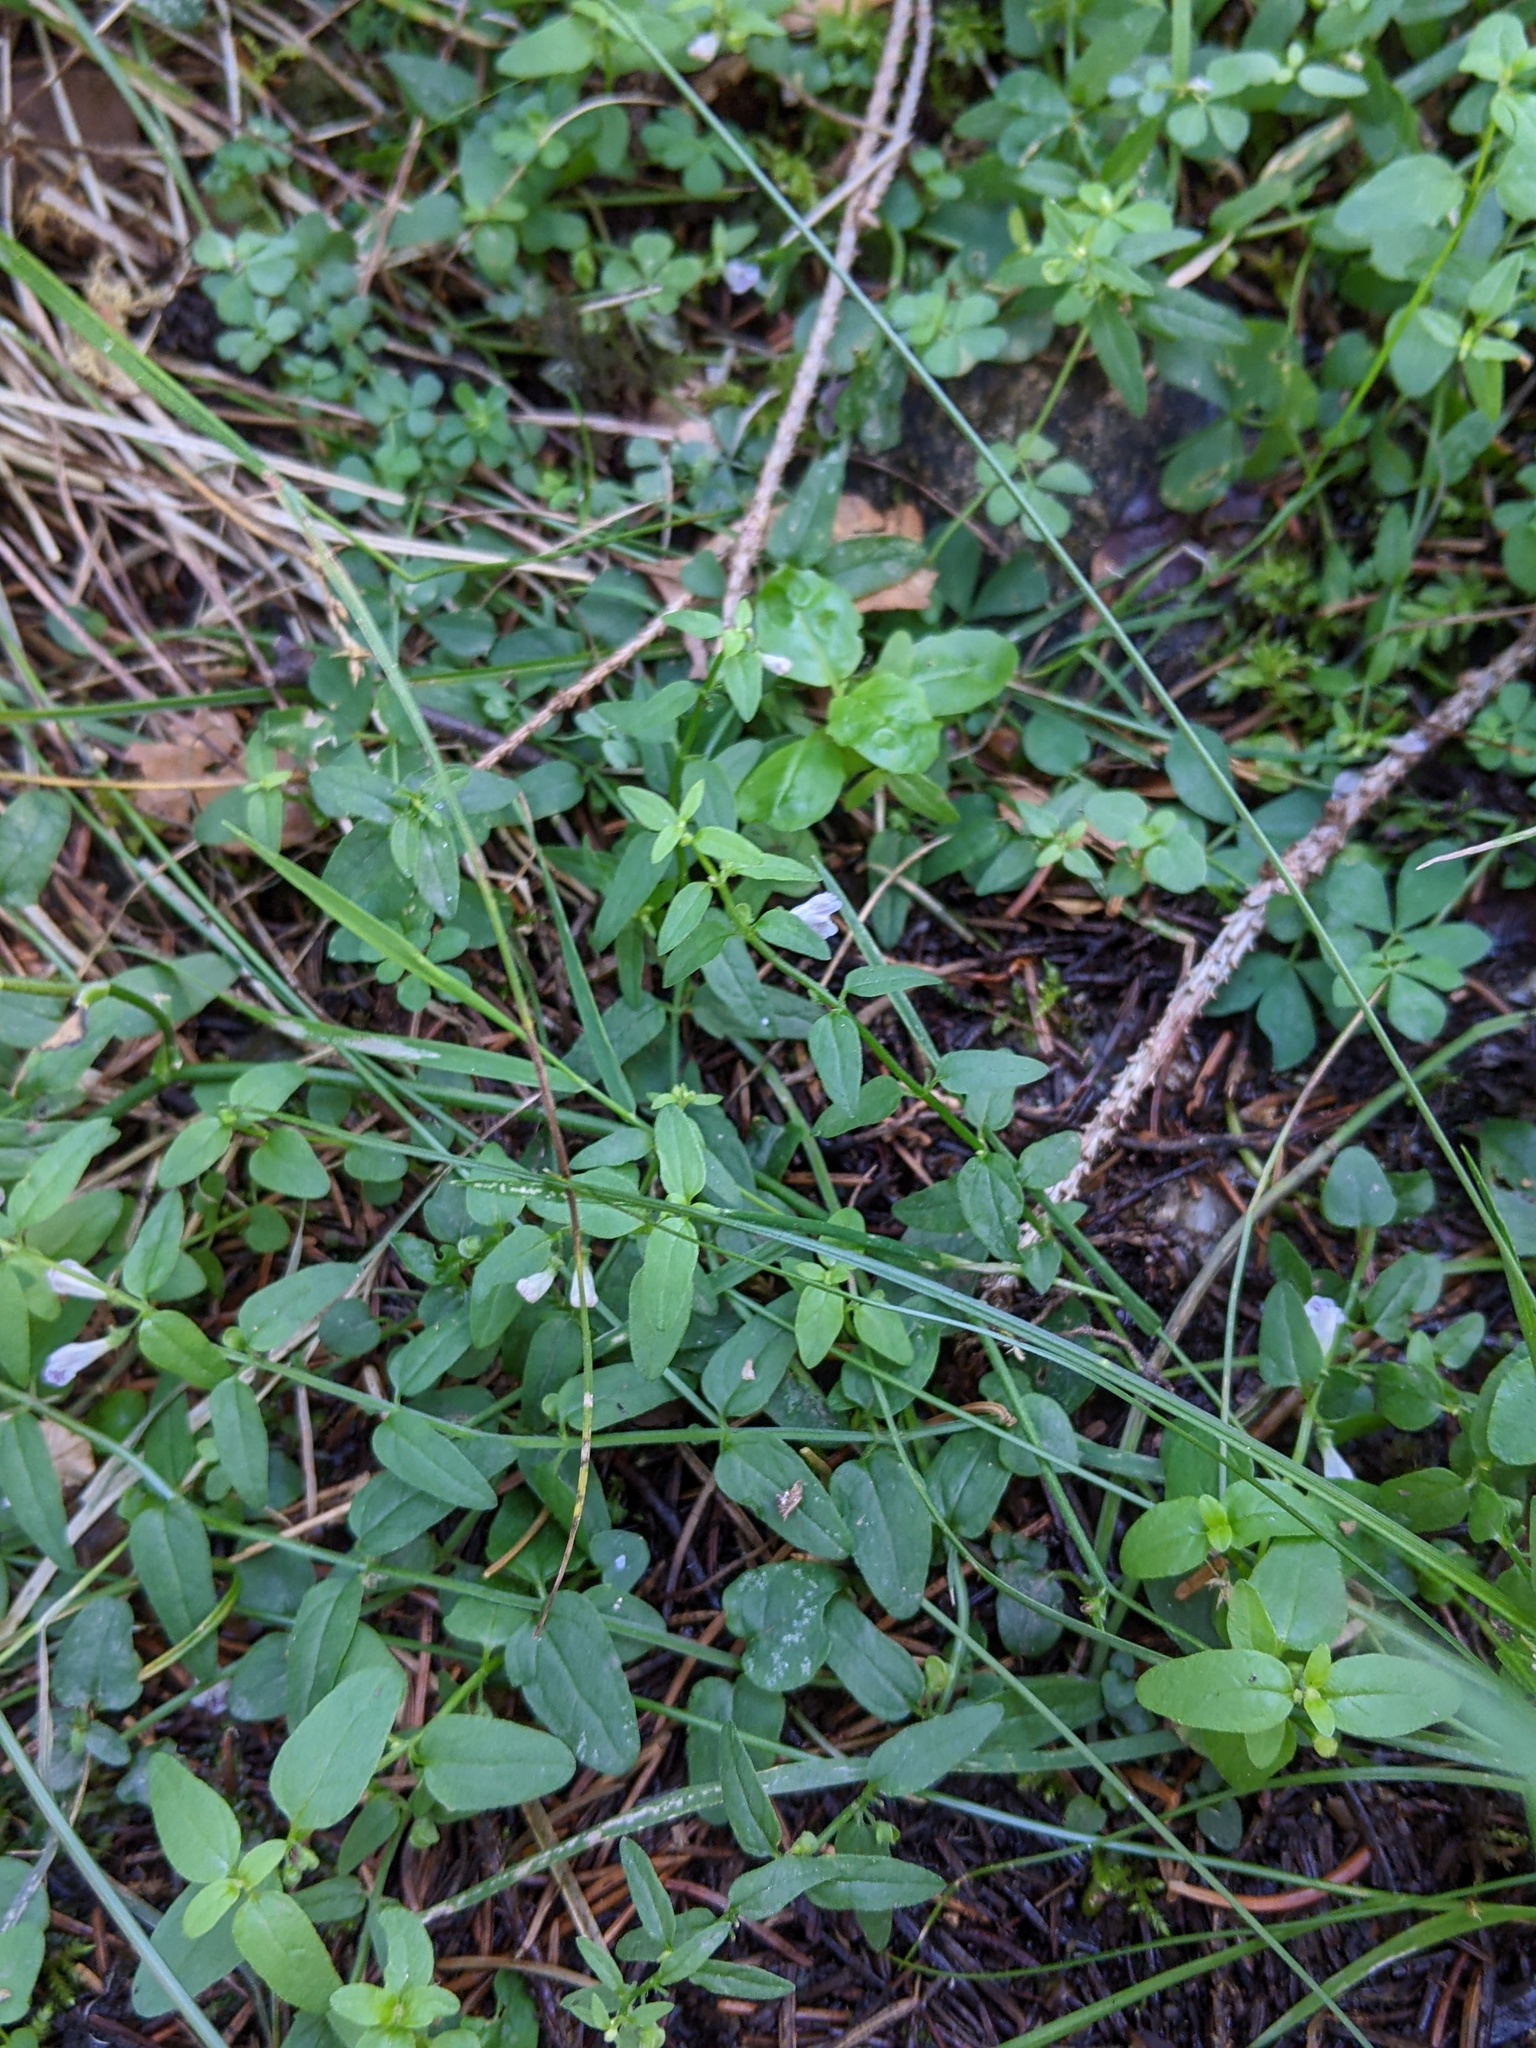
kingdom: Plantae
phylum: Tracheophyta
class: Magnoliopsida
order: Lamiales
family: Lamiaceae
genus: Scutellaria
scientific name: Scutellaria minor
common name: Lesser skullcap
